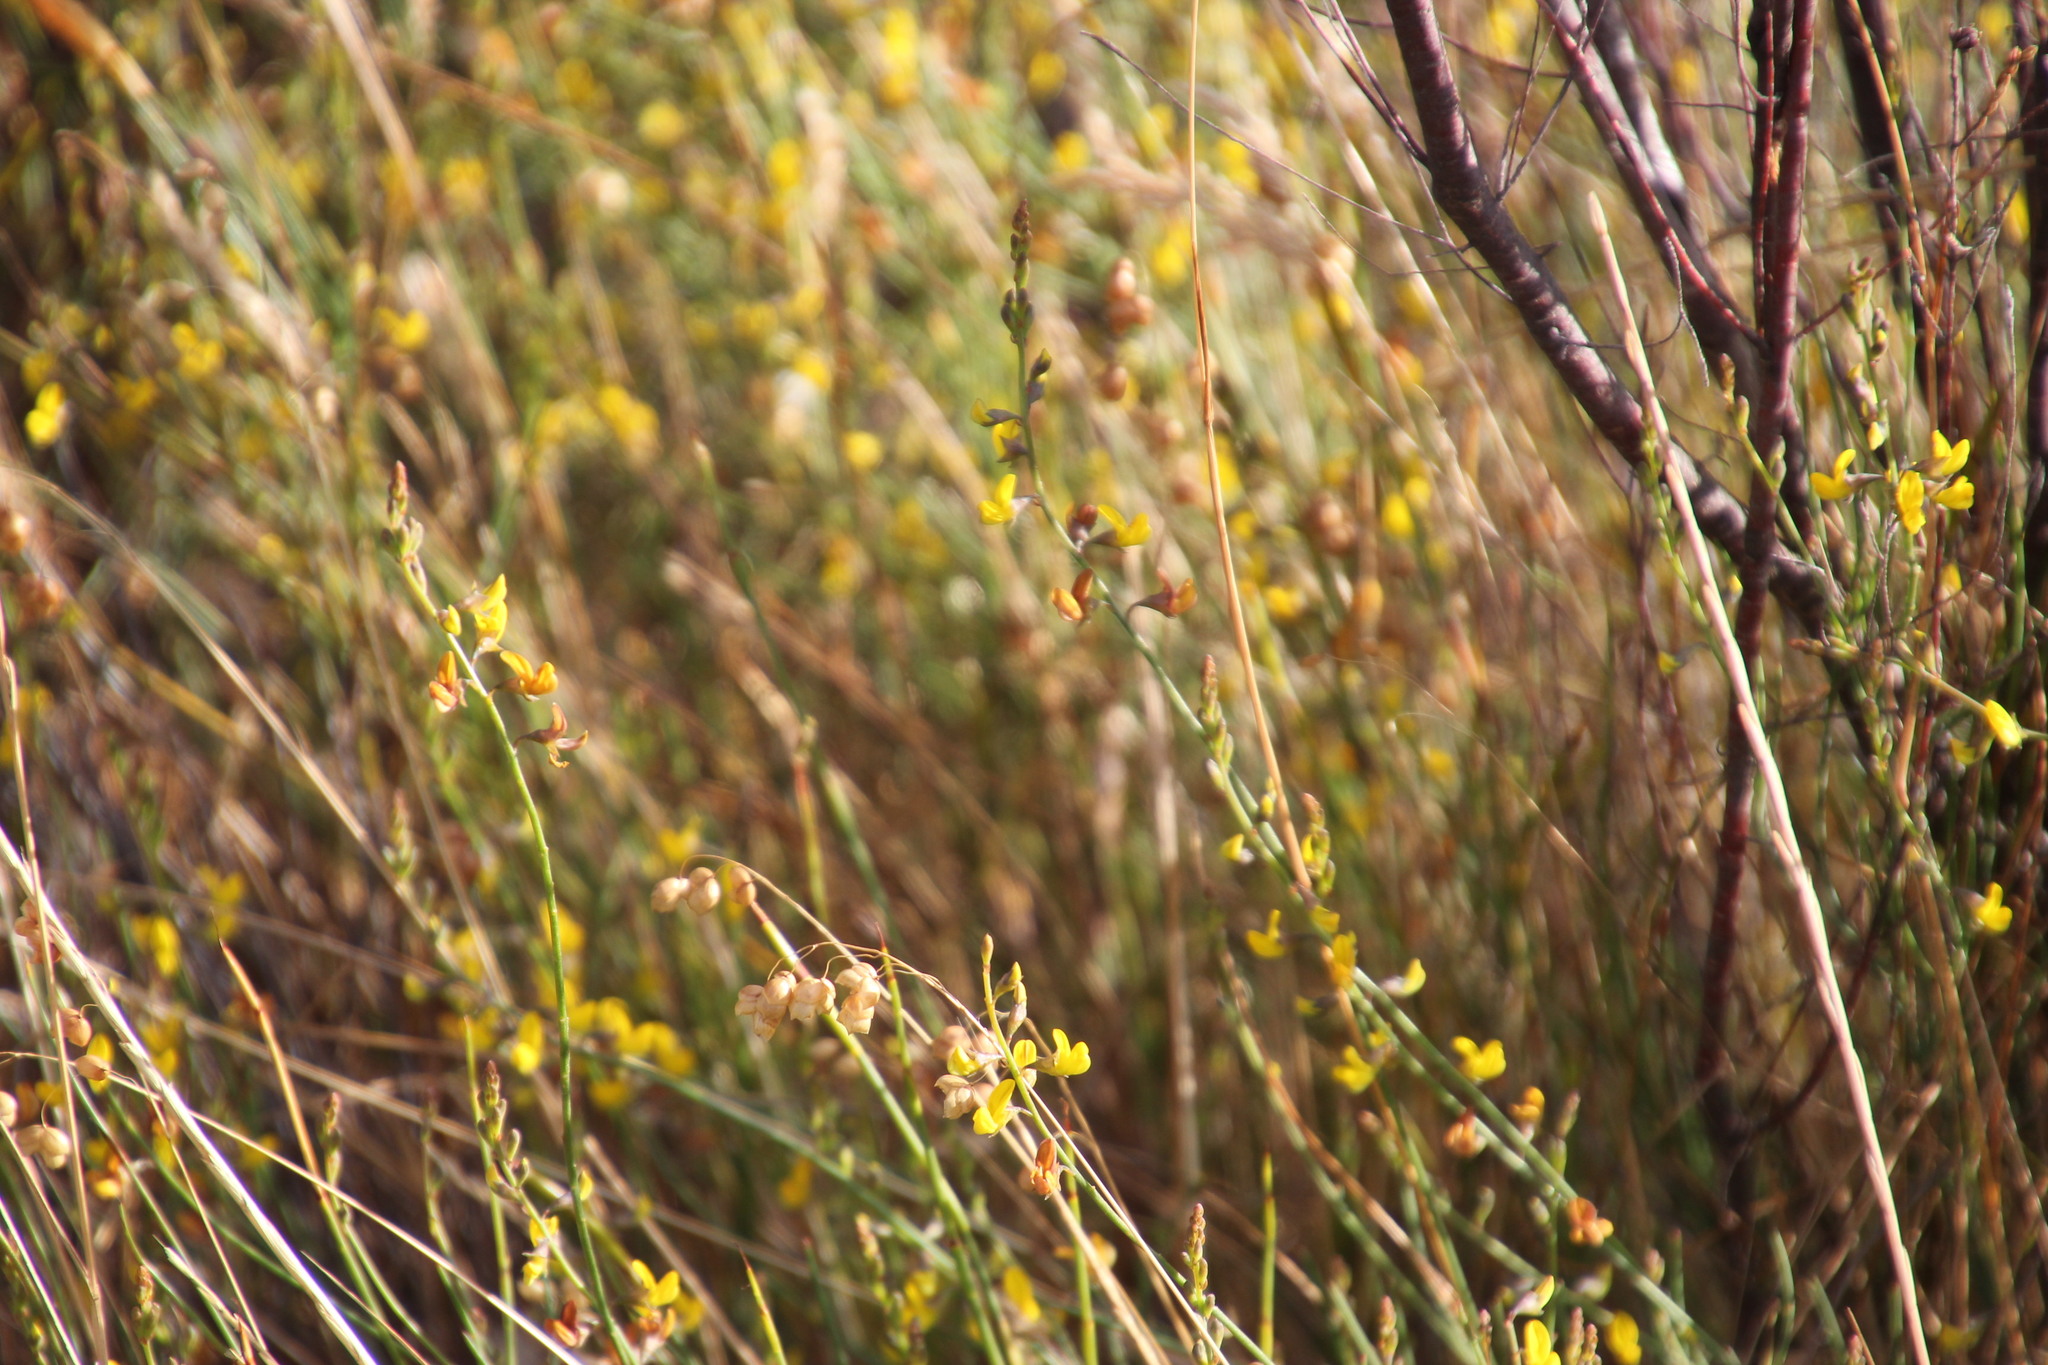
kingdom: Plantae
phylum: Tracheophyta
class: Magnoliopsida
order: Fabales
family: Fabaceae
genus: Lebeckia
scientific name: Lebeckia contaminata
